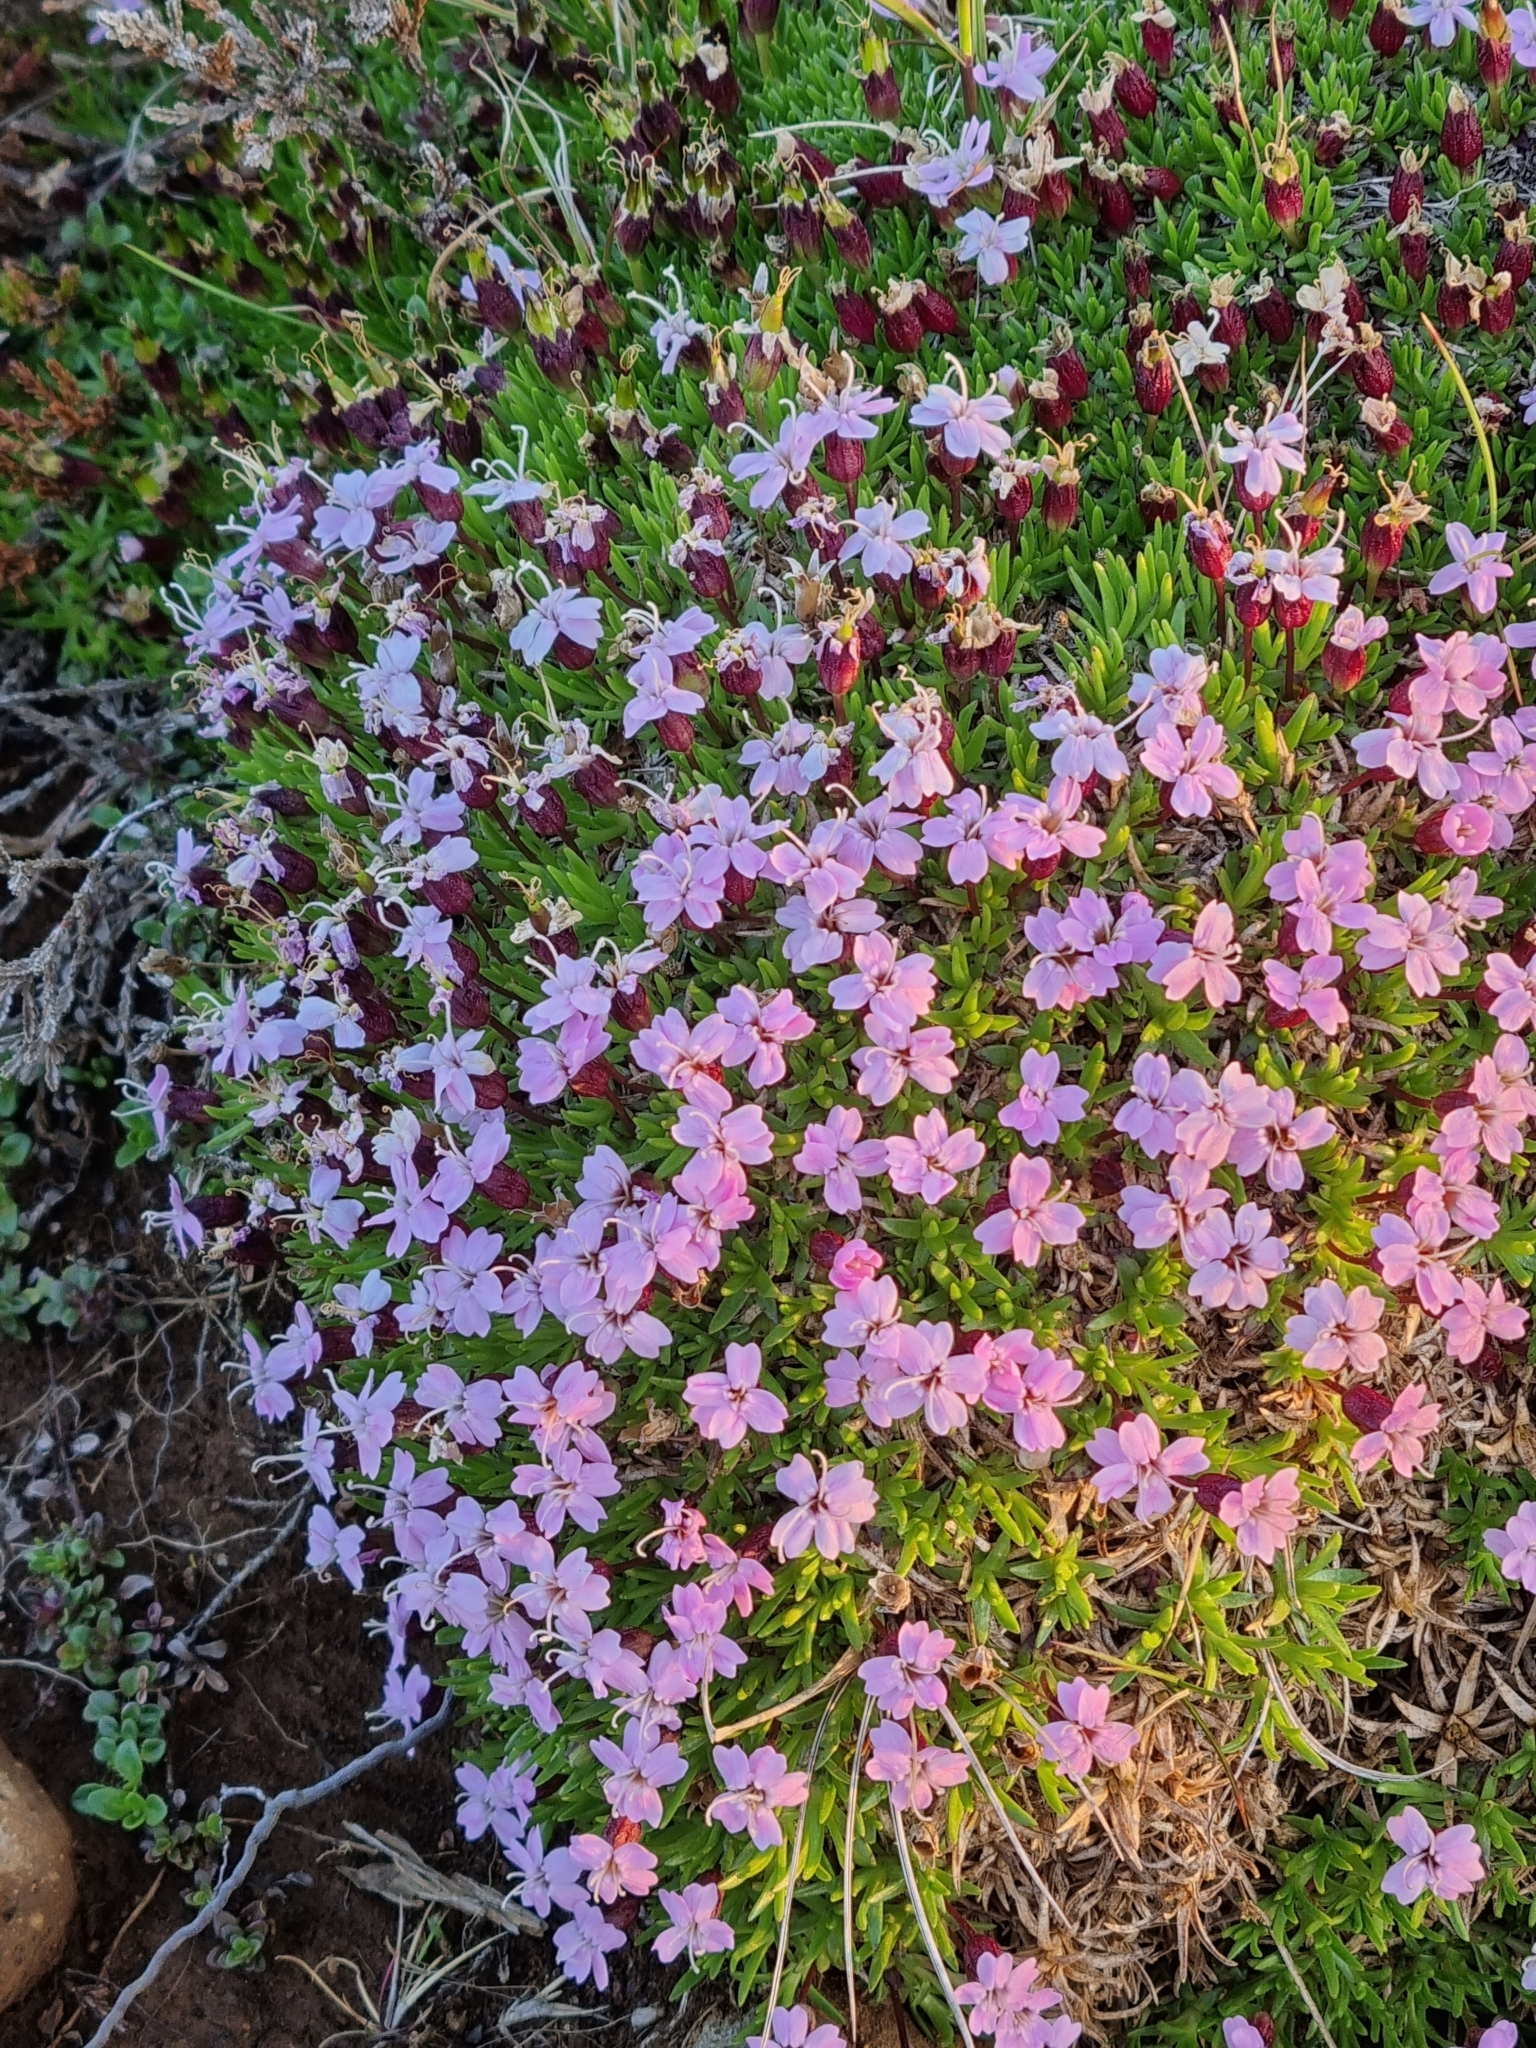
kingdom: Plantae
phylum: Tracheophyta
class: Magnoliopsida
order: Caryophyllales
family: Caryophyllaceae
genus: Silene
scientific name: Silene acaulis
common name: Moss campion
